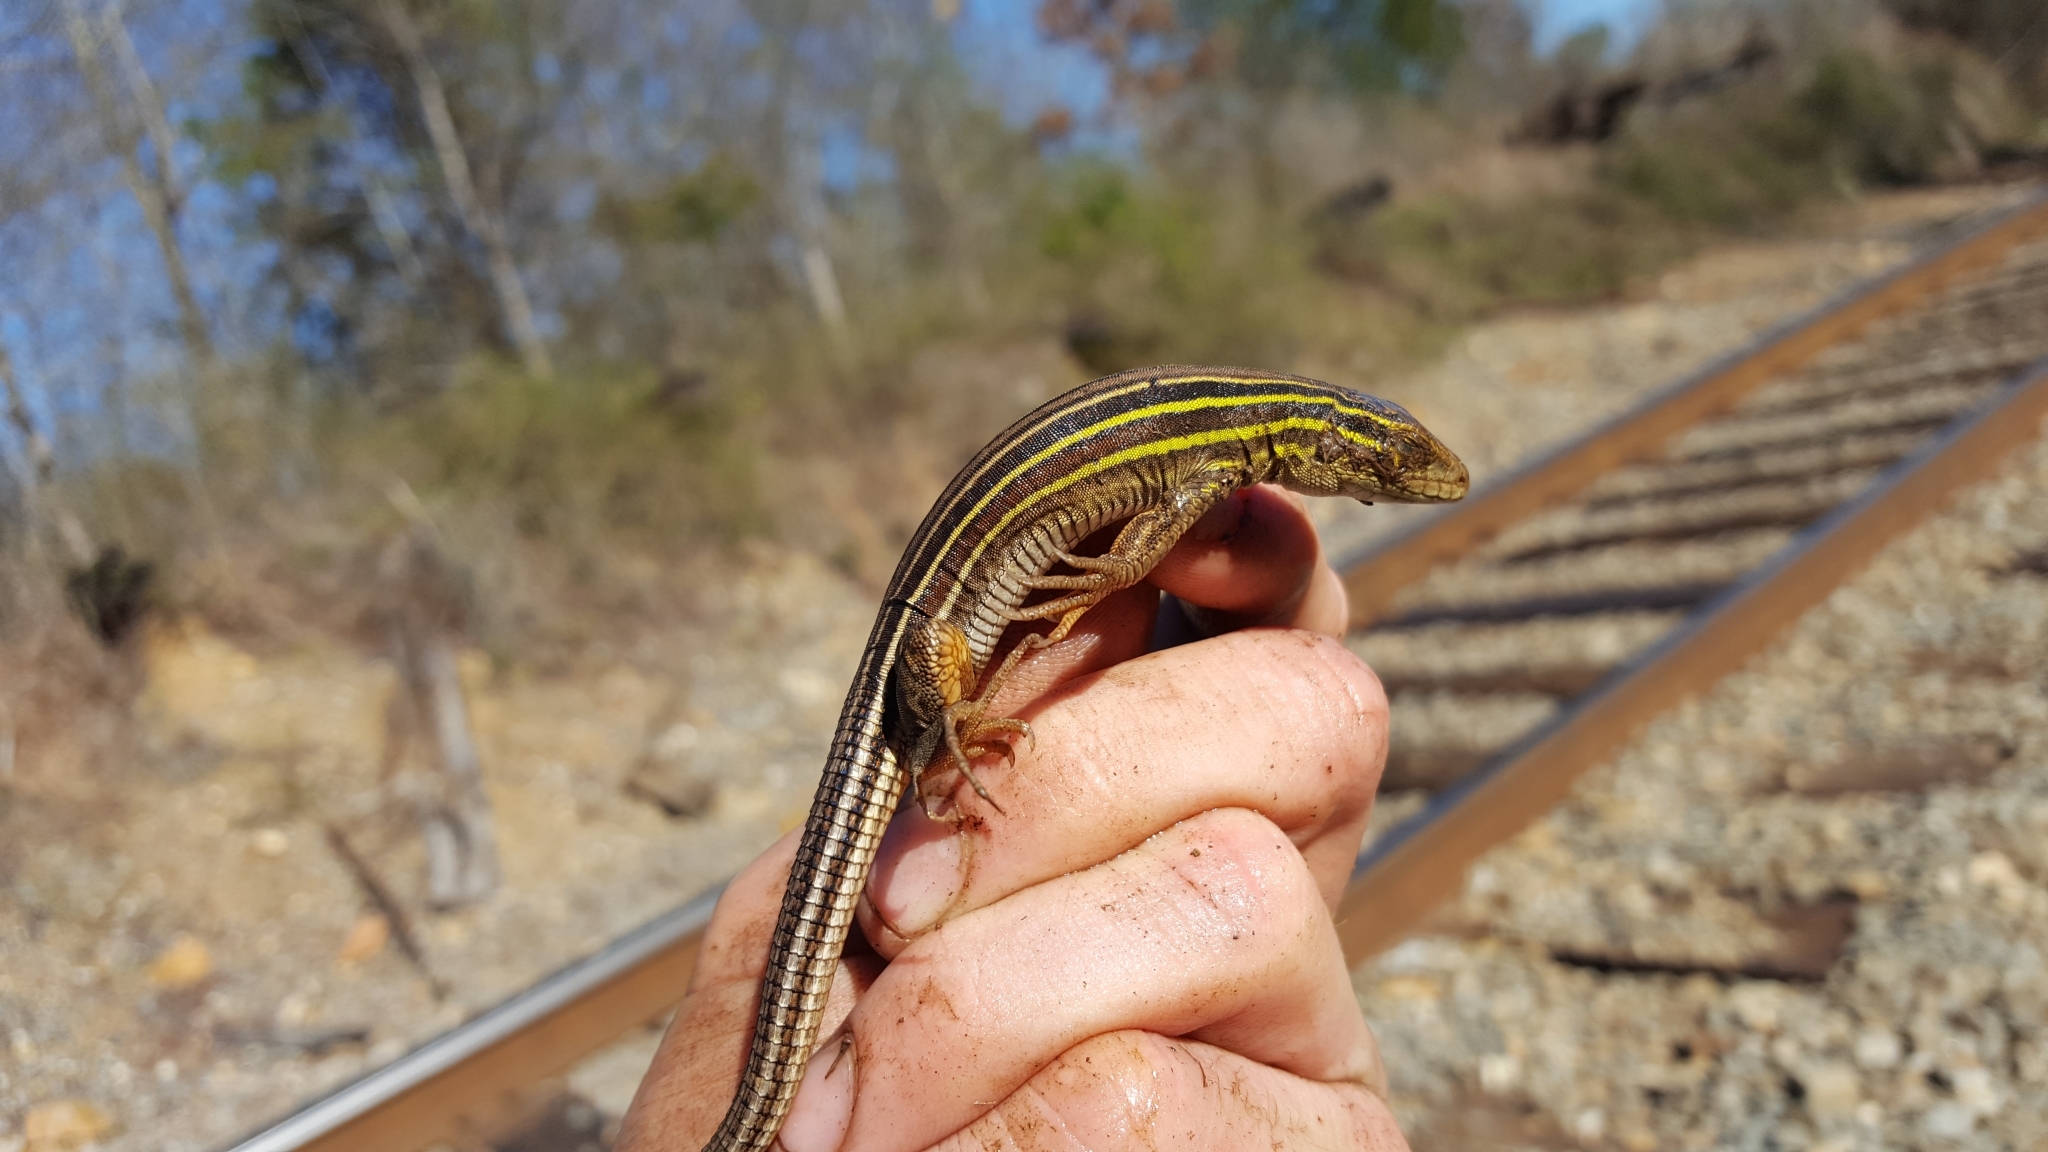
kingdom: Animalia
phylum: Chordata
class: Squamata
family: Teiidae
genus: Aspidoscelis
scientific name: Aspidoscelis sexlineatus
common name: Six-lined racerunner
